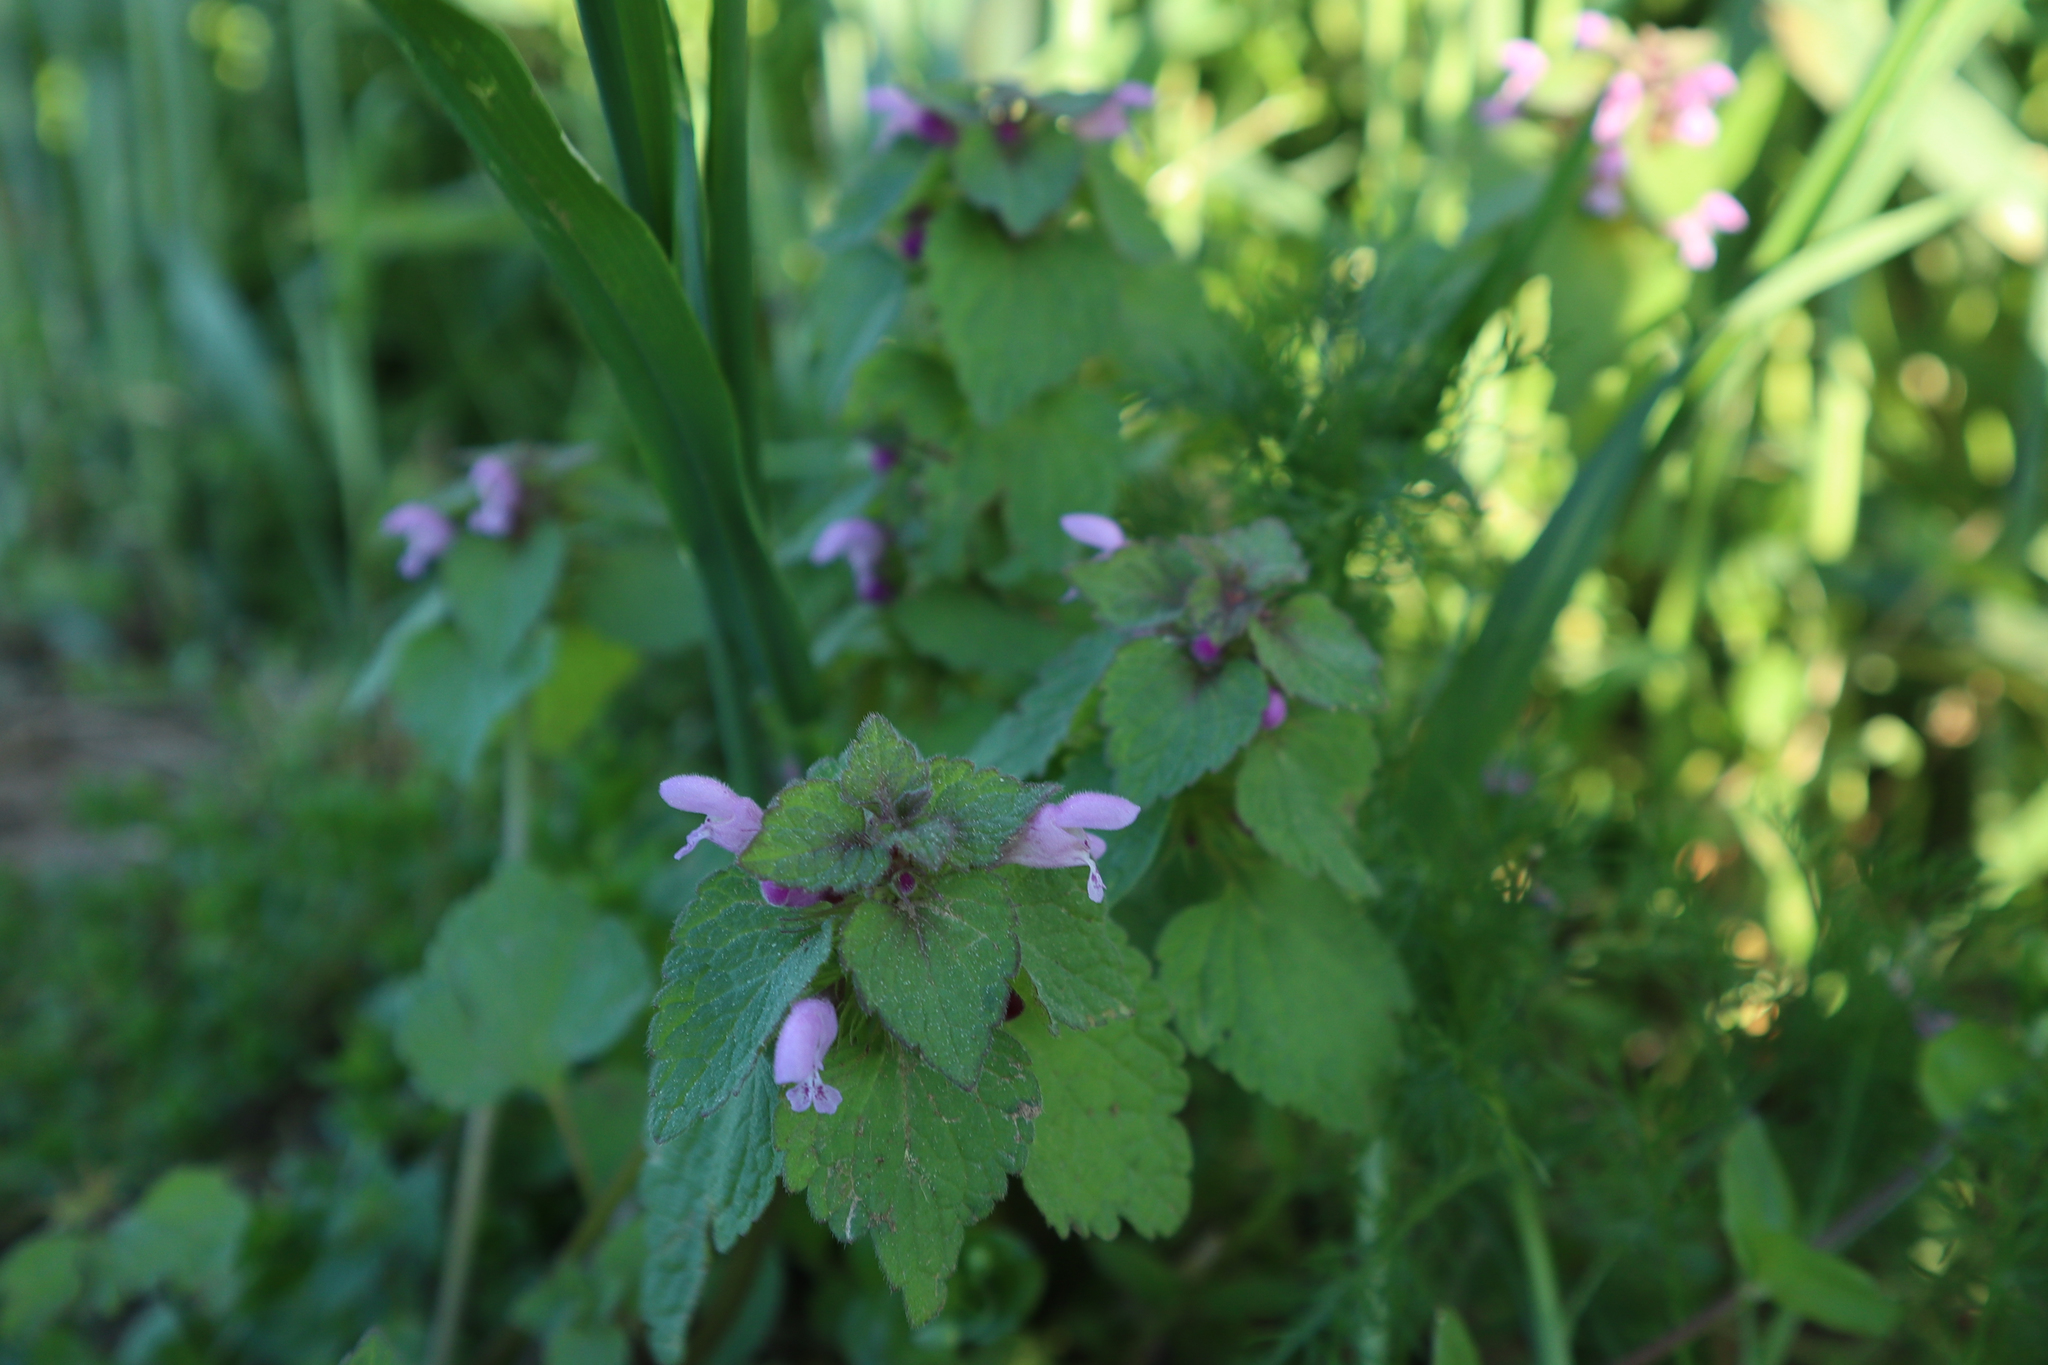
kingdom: Plantae
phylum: Tracheophyta
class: Magnoliopsida
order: Lamiales
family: Lamiaceae
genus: Lamium
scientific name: Lamium purpureum
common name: Red dead-nettle
